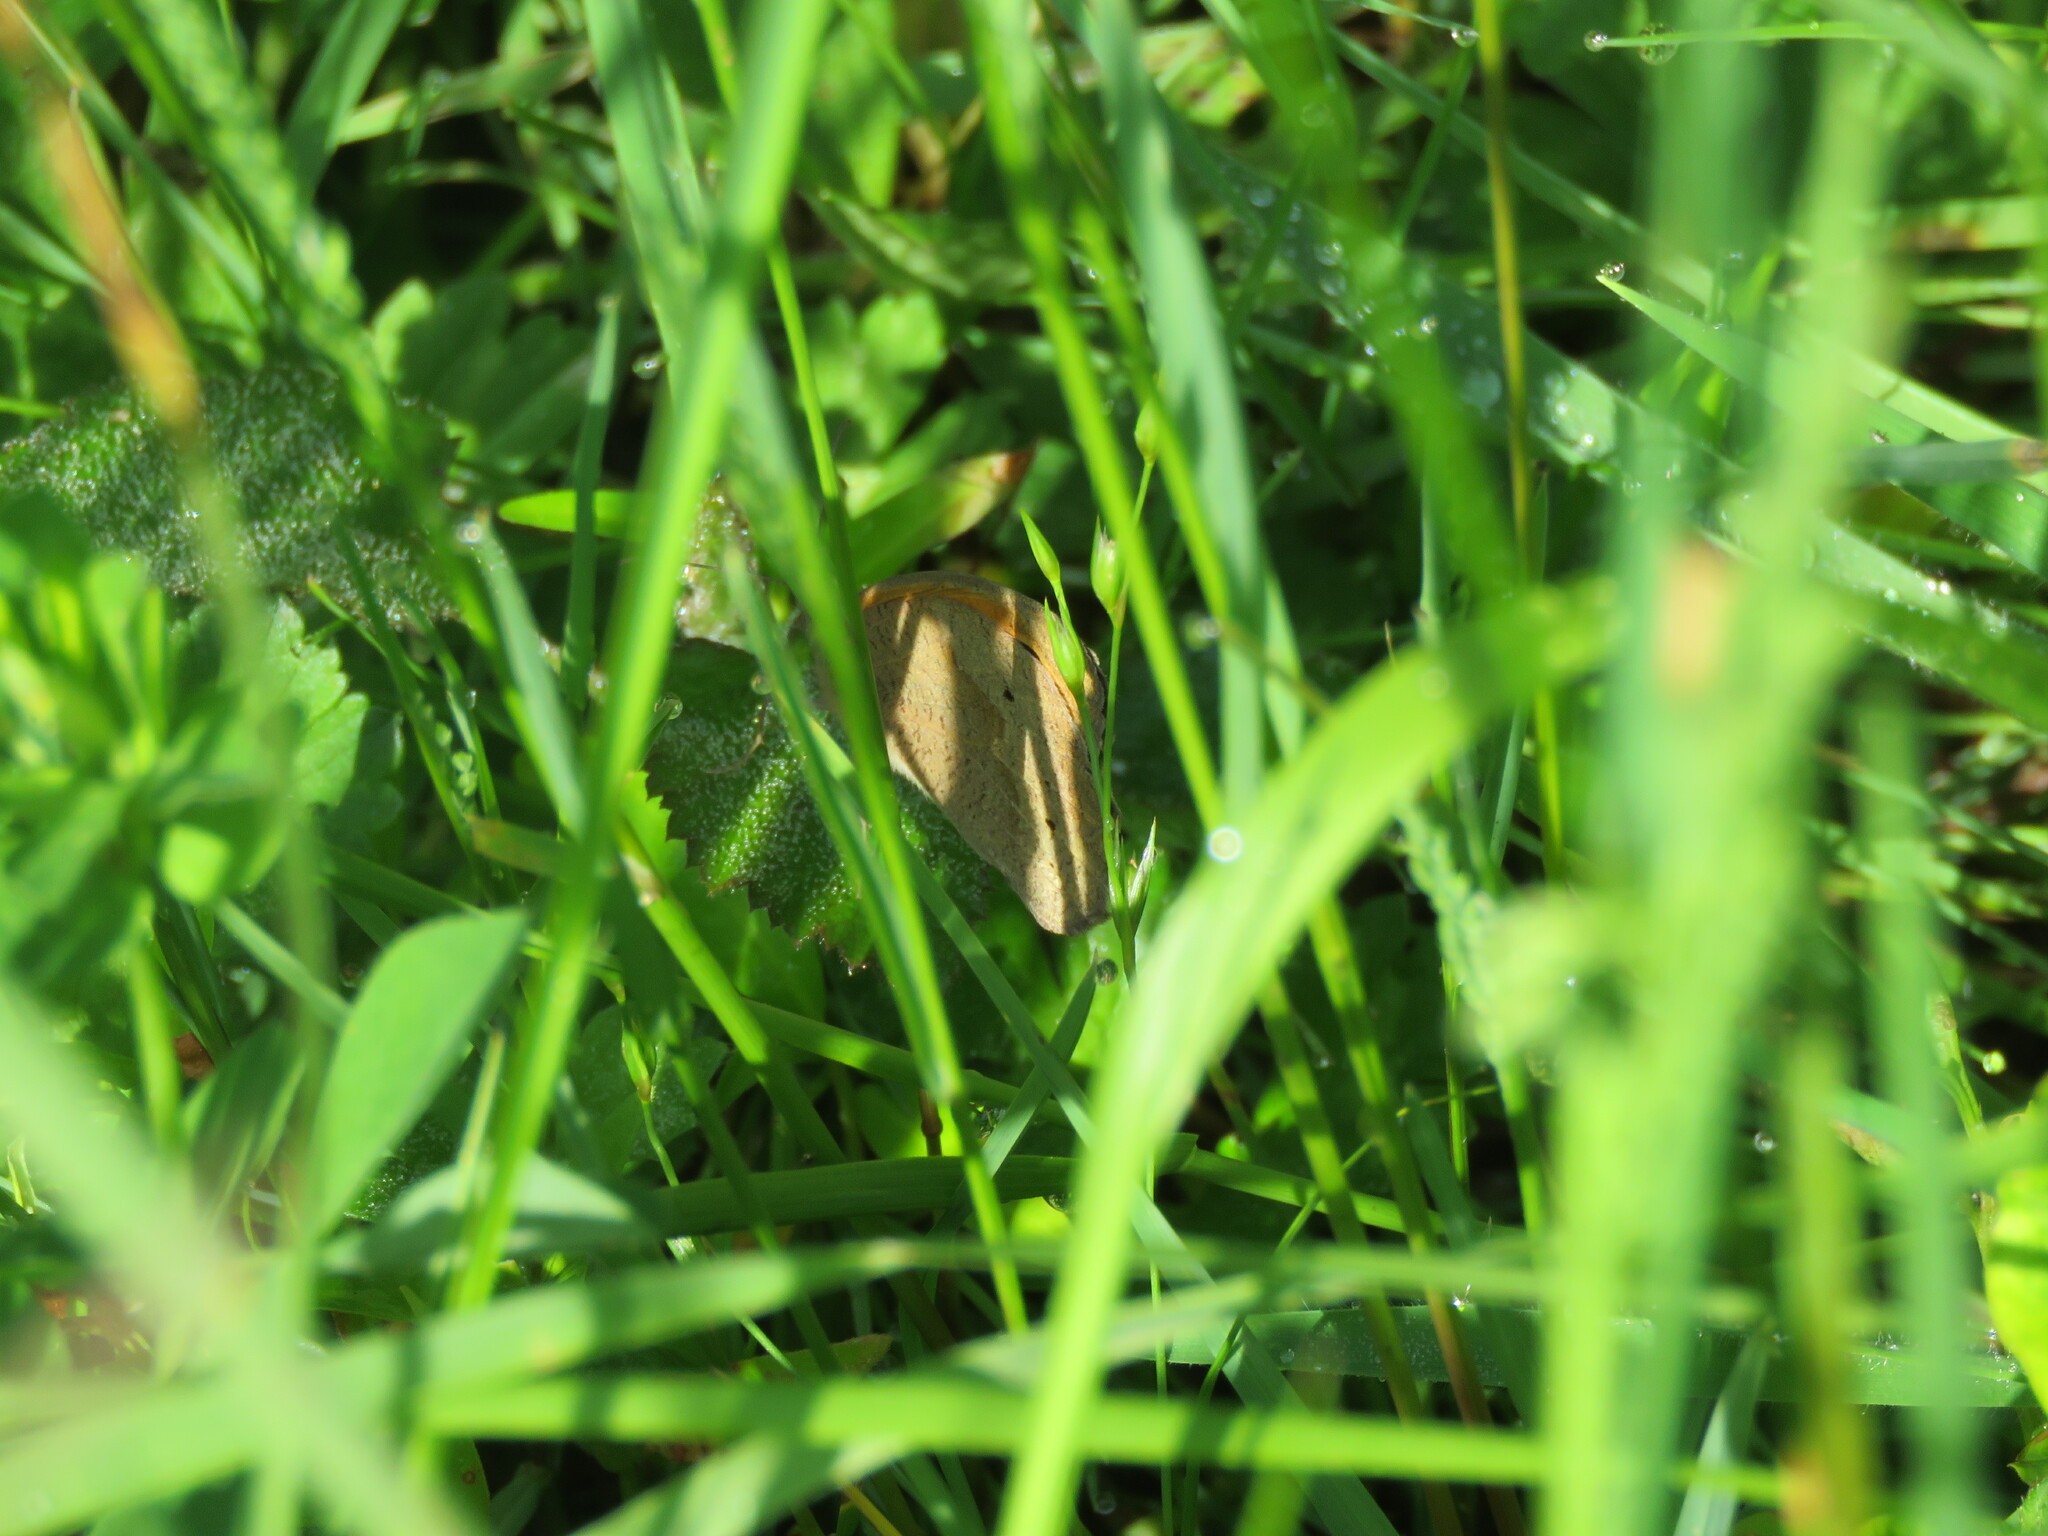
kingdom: Animalia
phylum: Arthropoda
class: Insecta
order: Lepidoptera
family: Nymphalidae
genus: Maniola
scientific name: Maniola jurtina
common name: Meadow brown
